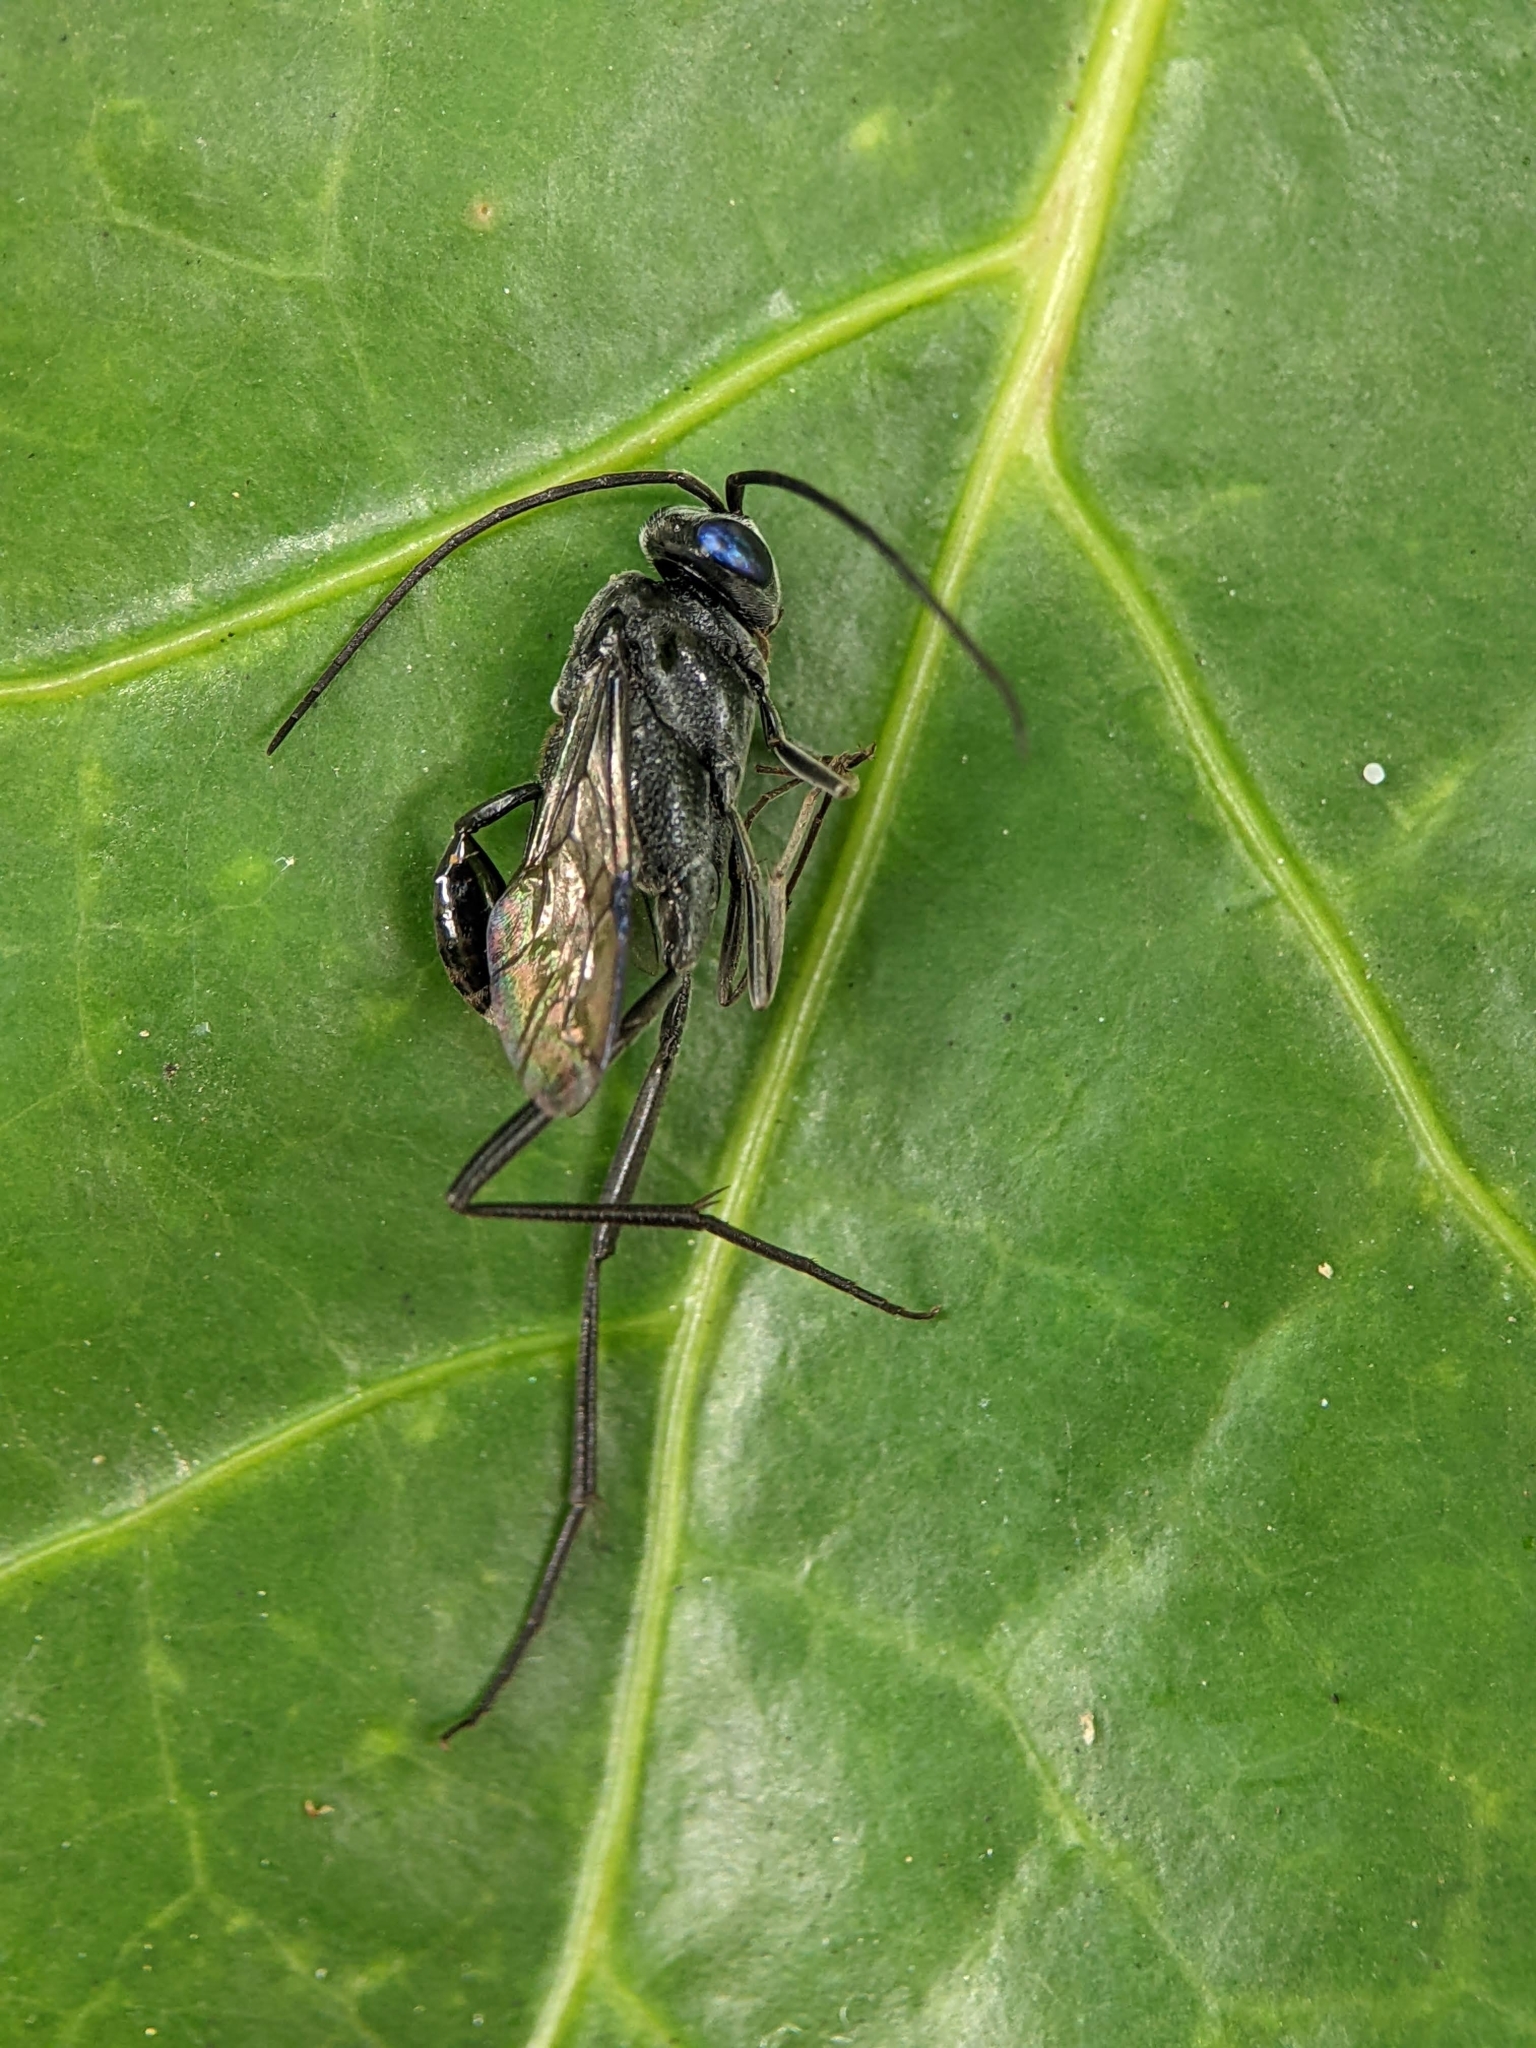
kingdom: Animalia
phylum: Arthropoda
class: Insecta
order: Hymenoptera
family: Evaniidae
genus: Evania
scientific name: Evania appendigaster
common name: Ensign wasp
